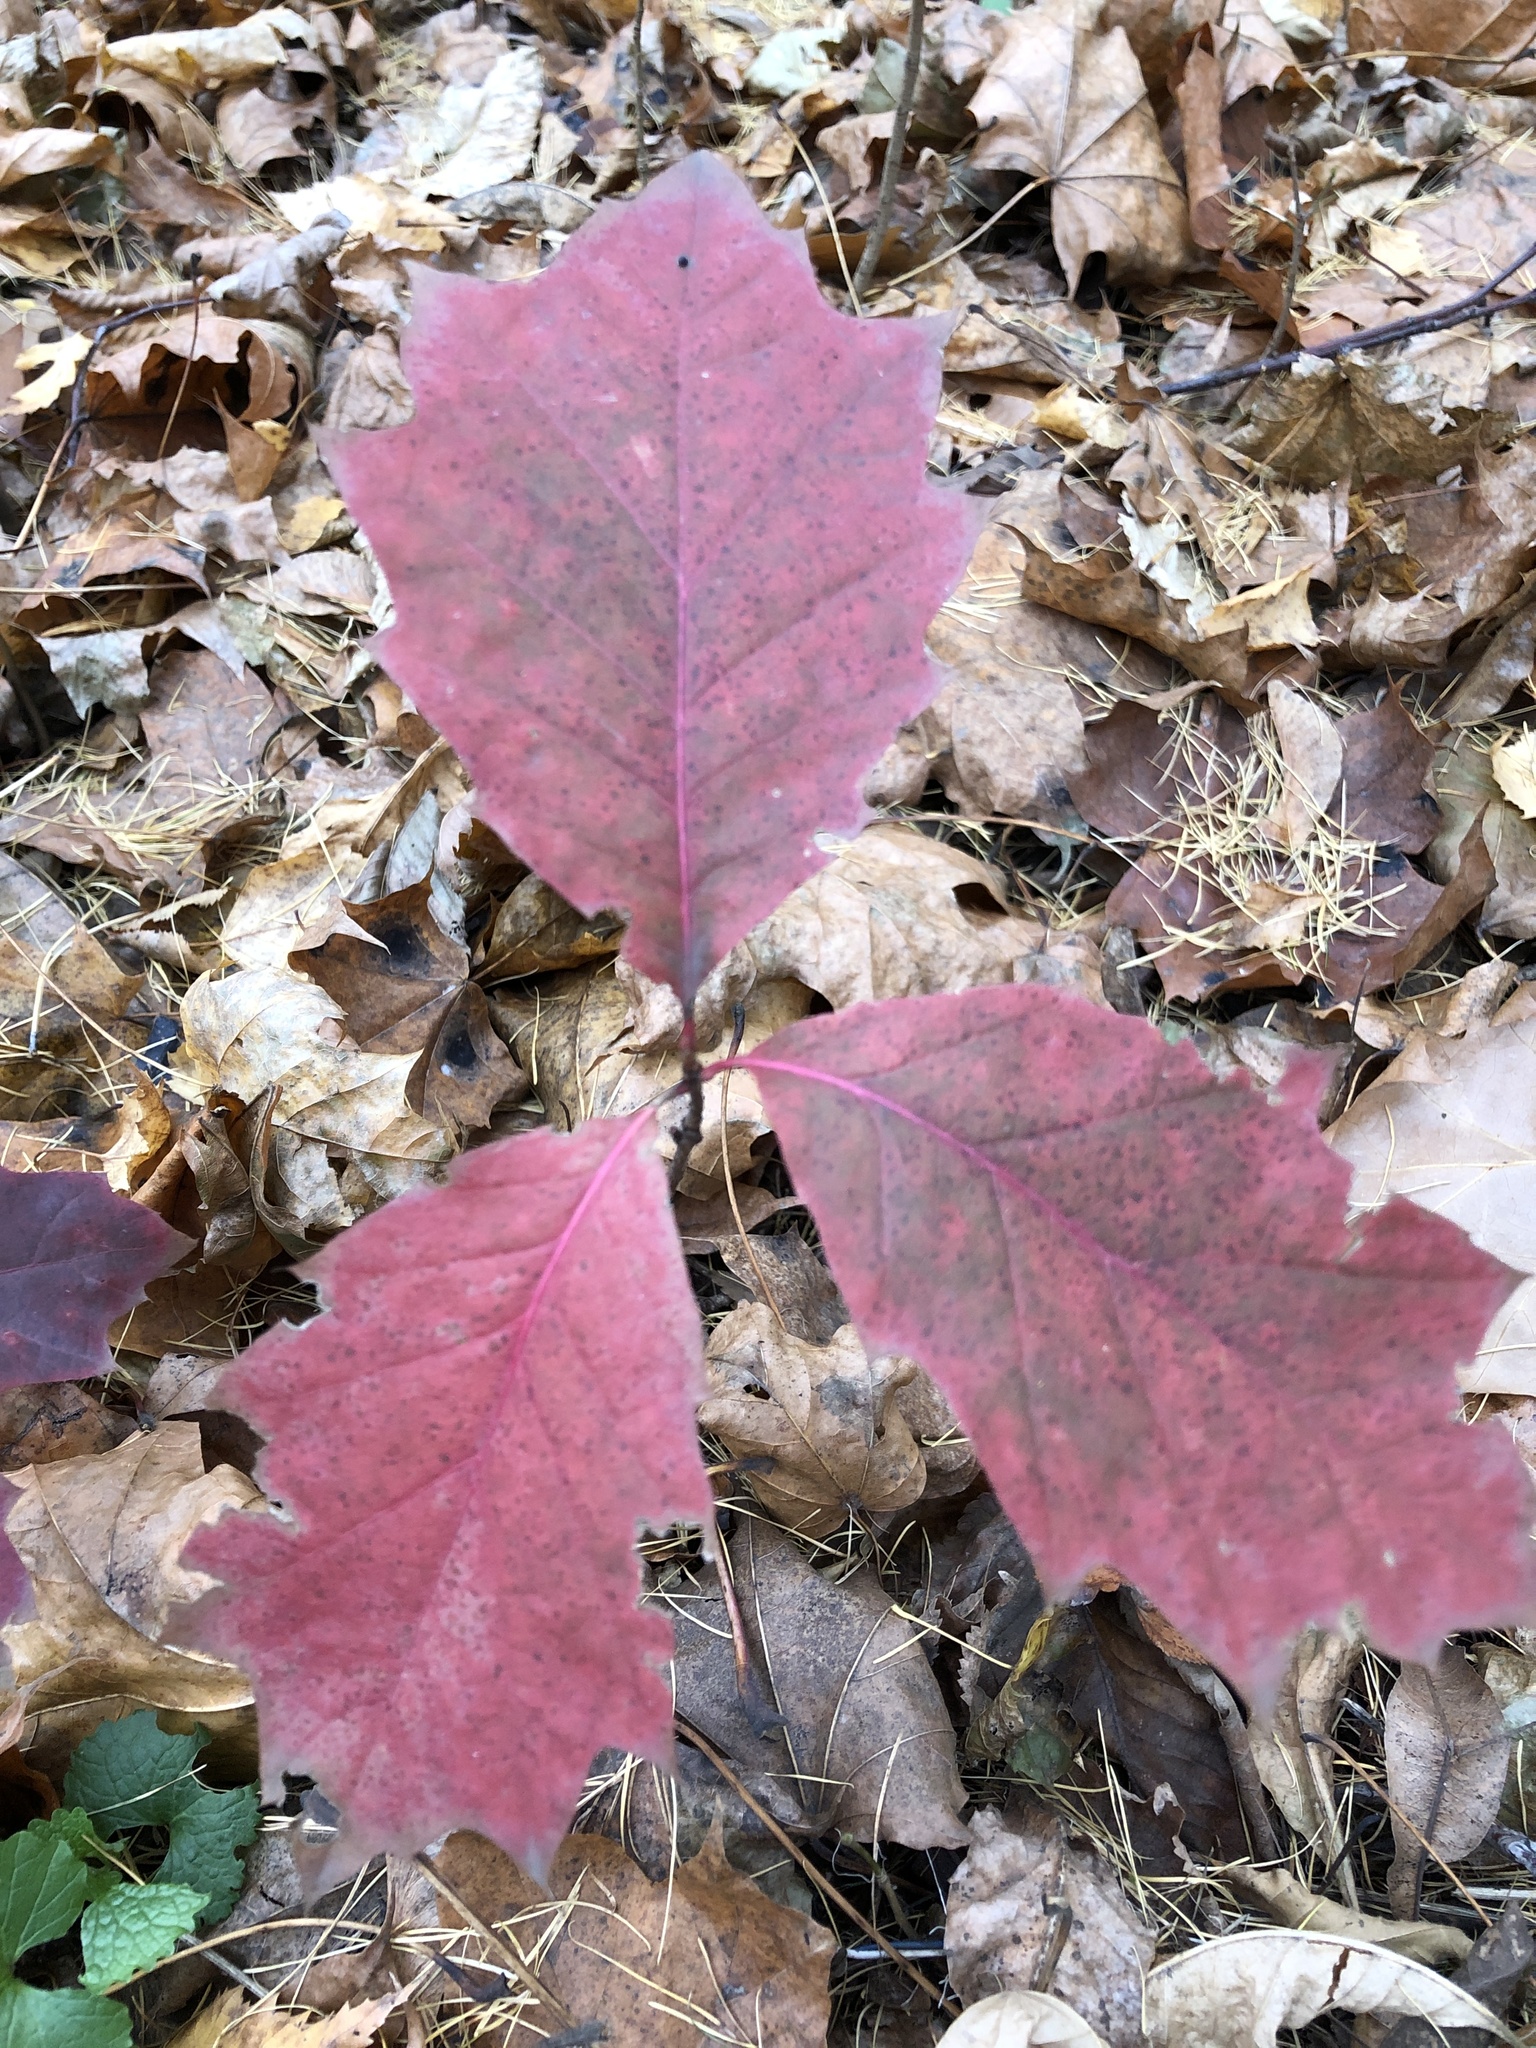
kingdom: Plantae
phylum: Tracheophyta
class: Magnoliopsida
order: Fagales
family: Fagaceae
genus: Quercus
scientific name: Quercus rubra
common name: Red oak
